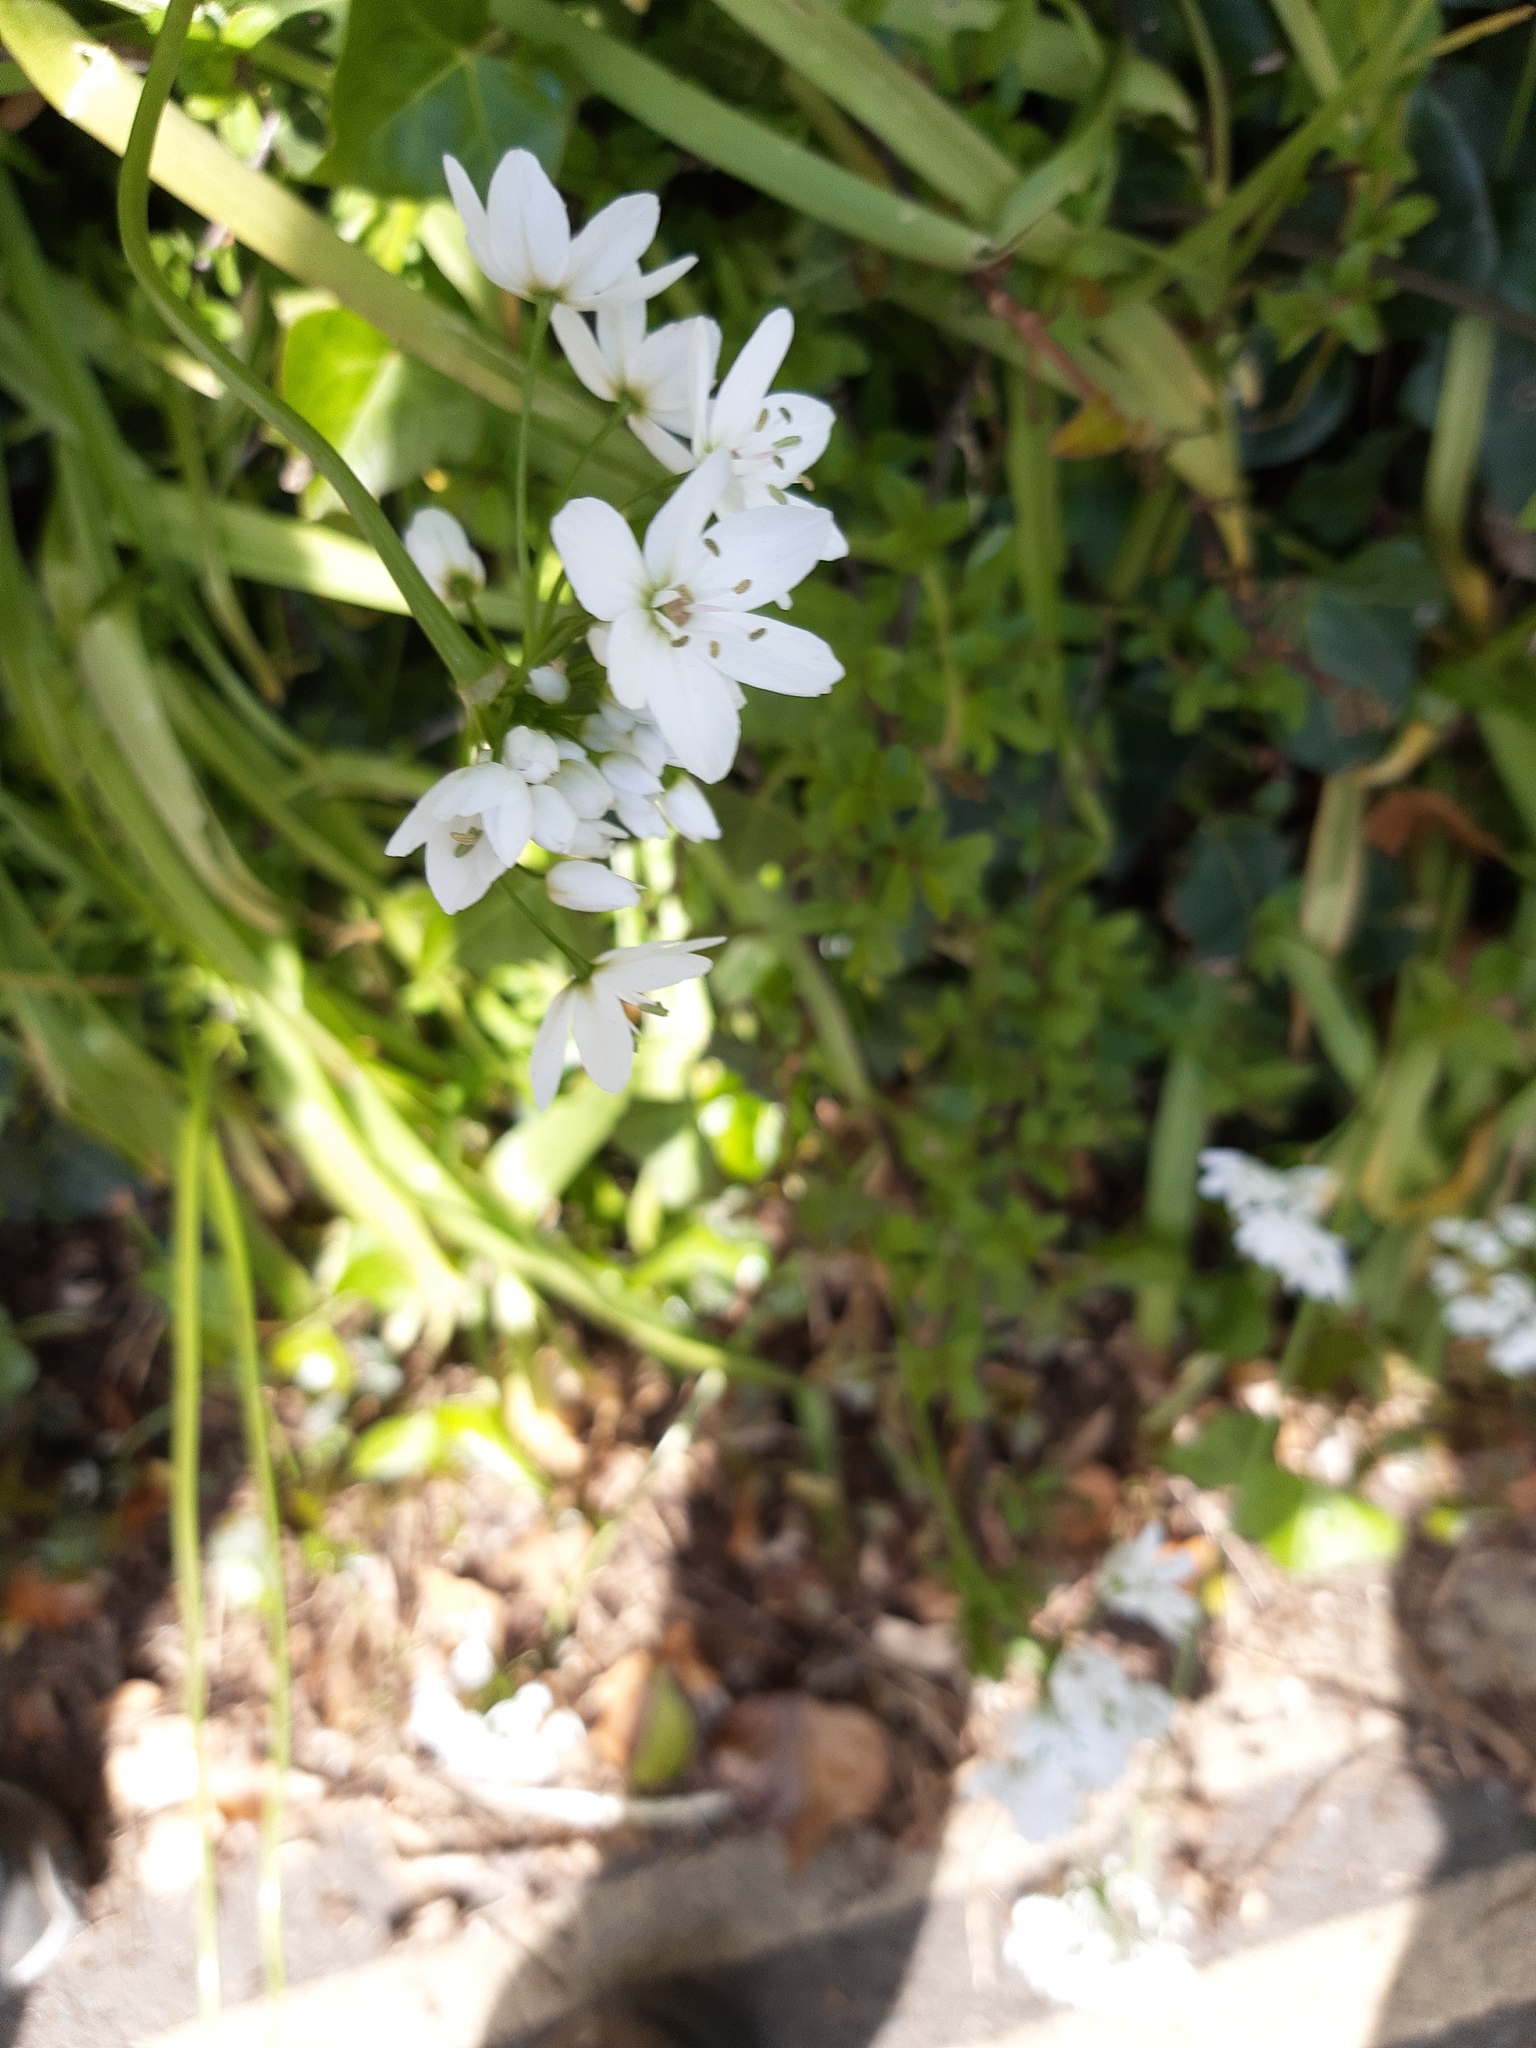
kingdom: Plantae
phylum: Tracheophyta
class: Liliopsida
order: Asparagales
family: Amaryllidaceae
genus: Allium
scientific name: Allium neapolitanum
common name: Neapolitan garlic
